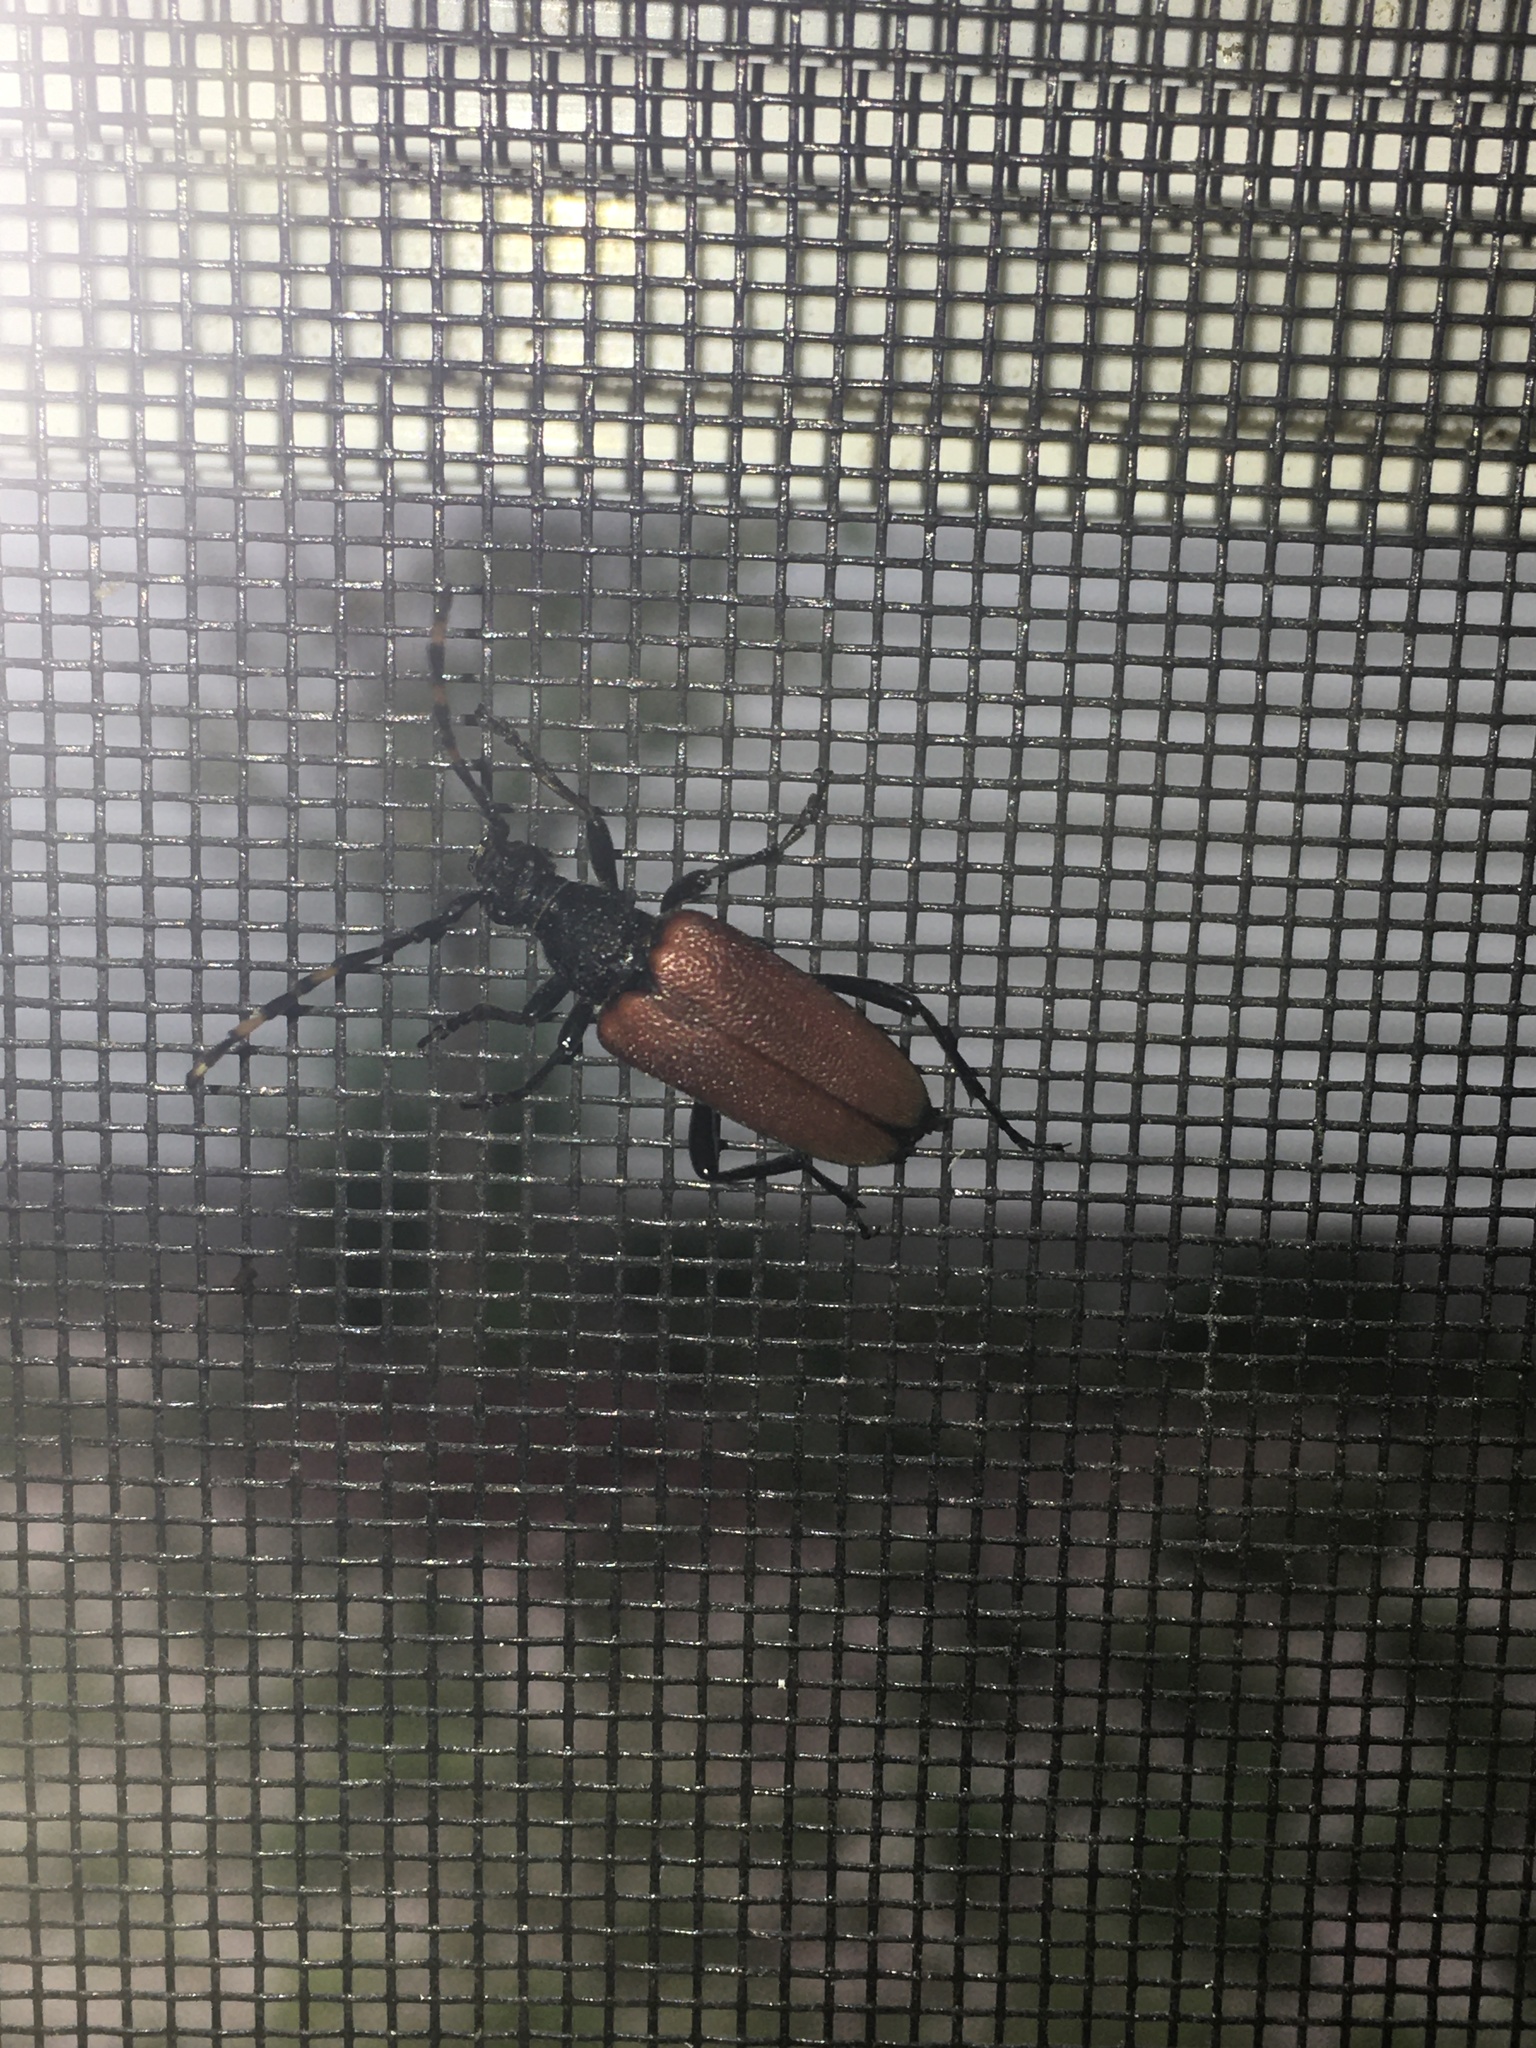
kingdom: Animalia
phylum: Arthropoda
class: Insecta
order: Coleoptera
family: Cerambycidae
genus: Stictoleptura
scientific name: Stictoleptura canadensis
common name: Red-shouldered pine borer
